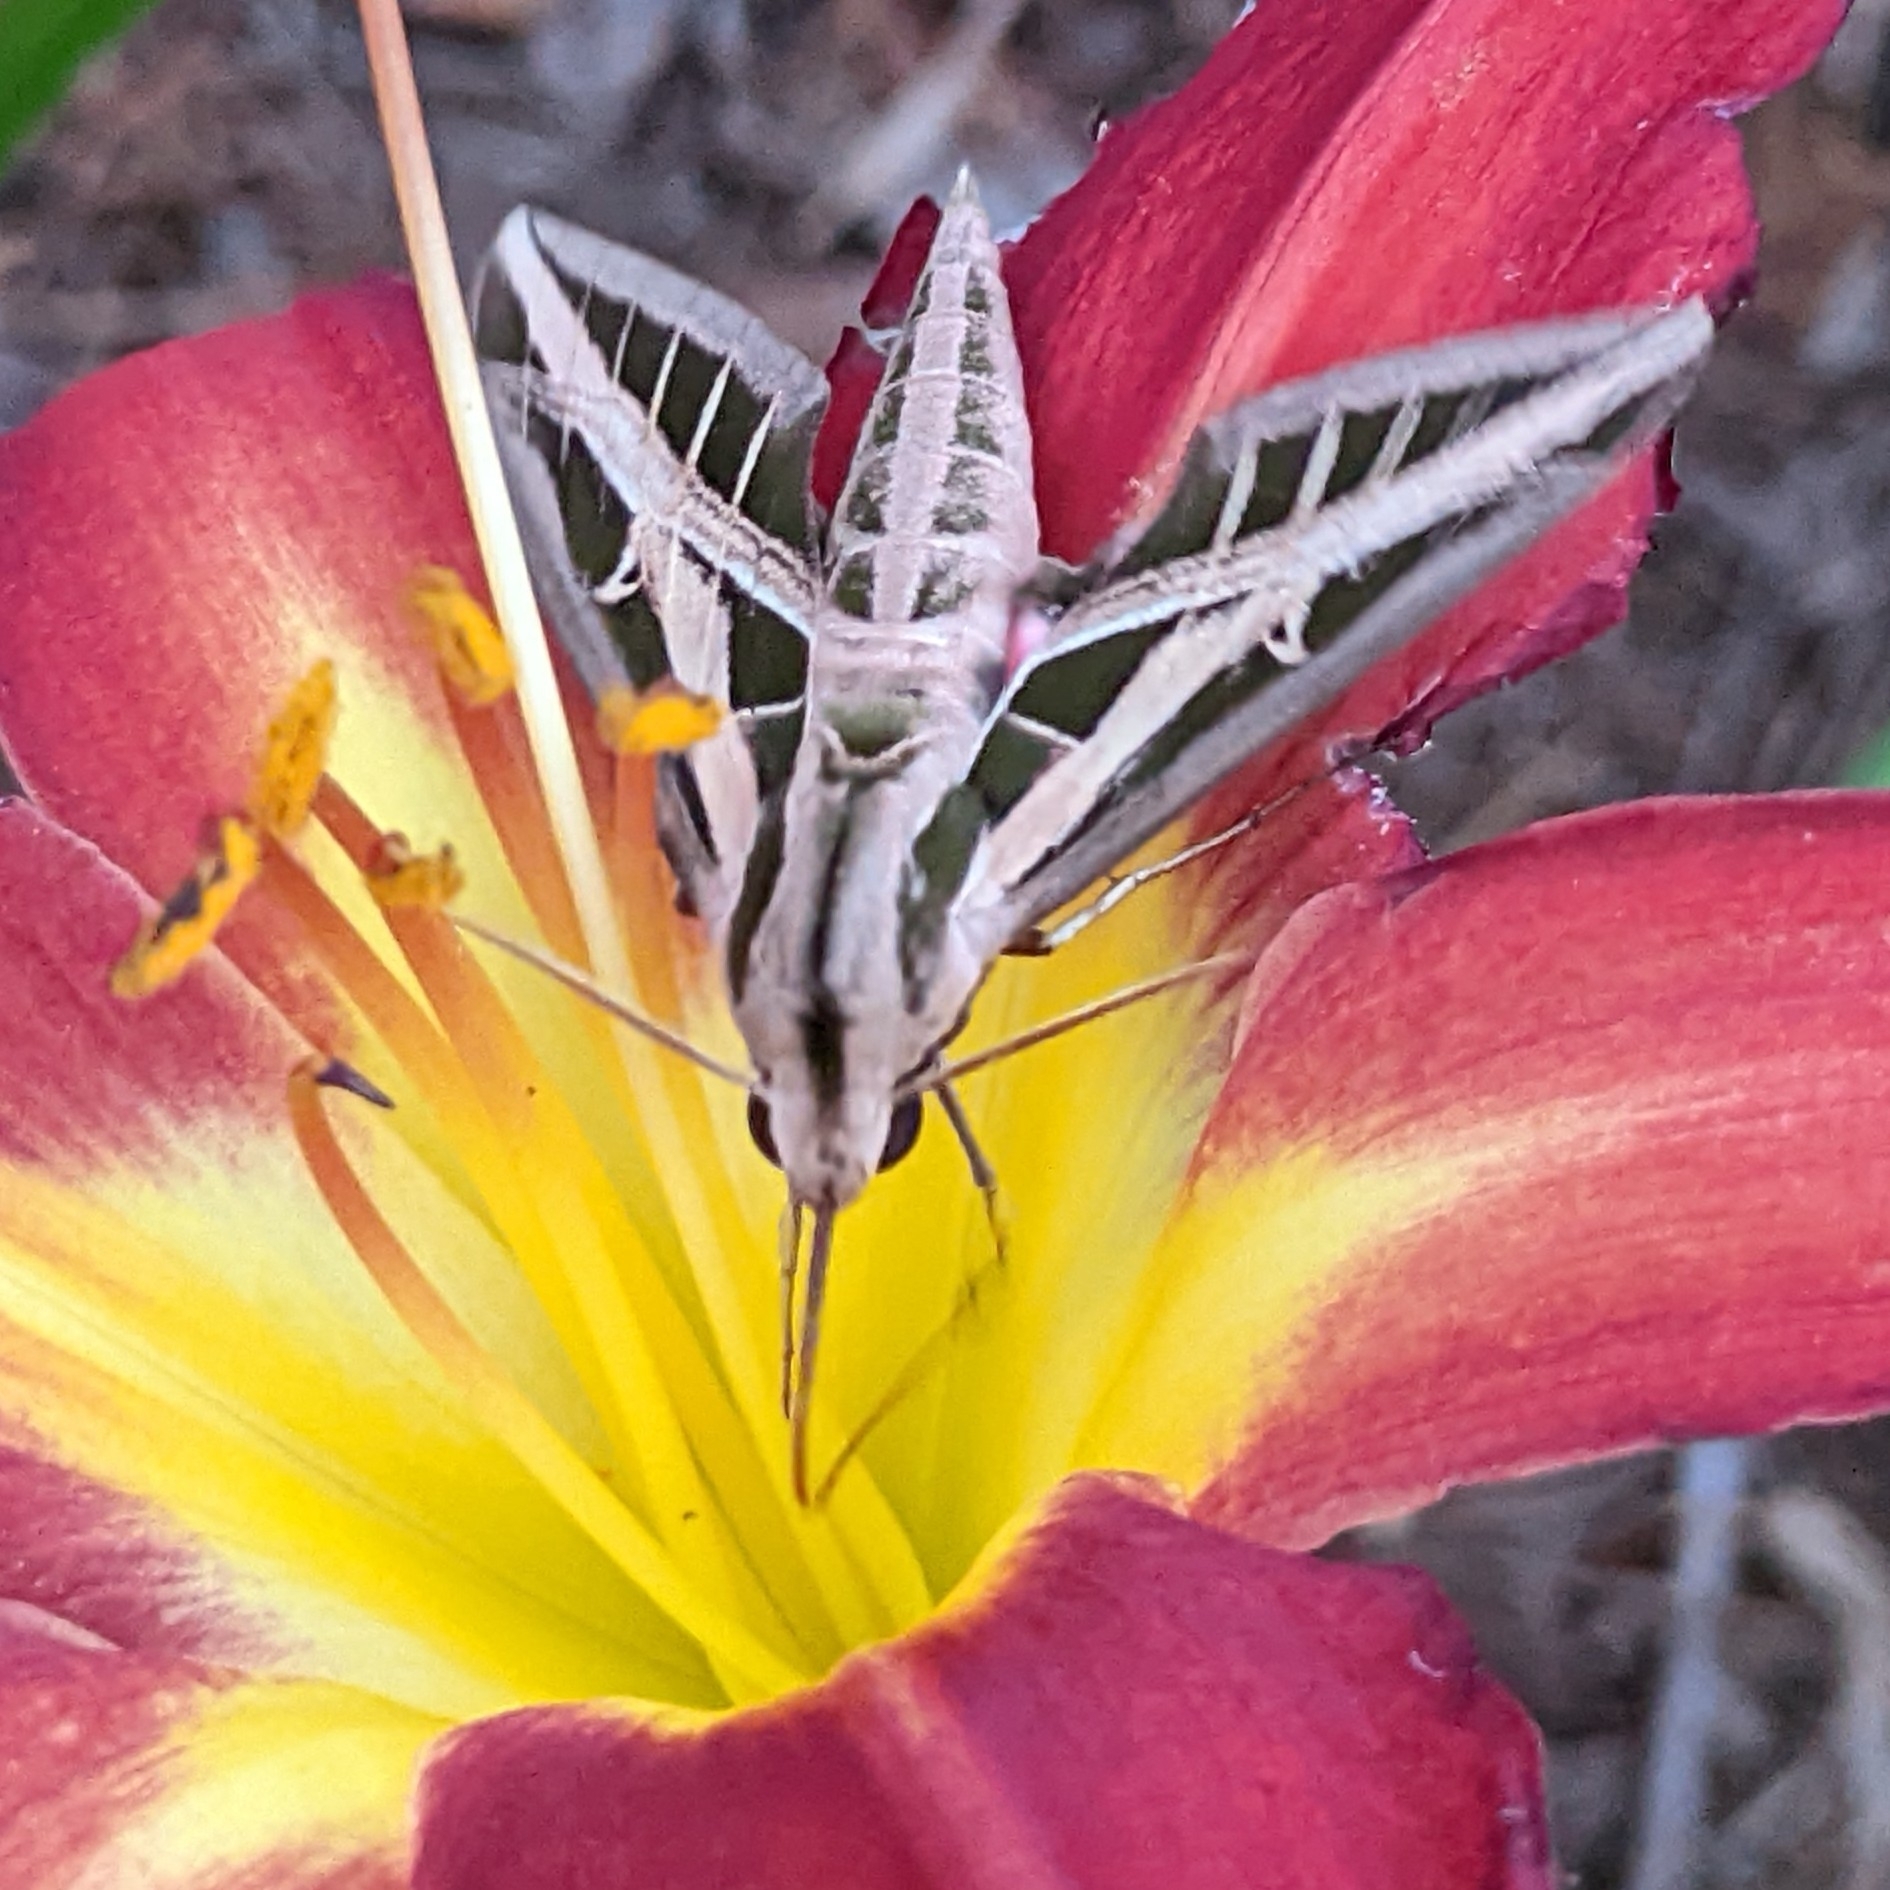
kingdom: Animalia
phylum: Arthropoda
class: Insecta
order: Lepidoptera
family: Sphingidae
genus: Eumorpha
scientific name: Eumorpha fasciatus
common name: Banded sphinx
